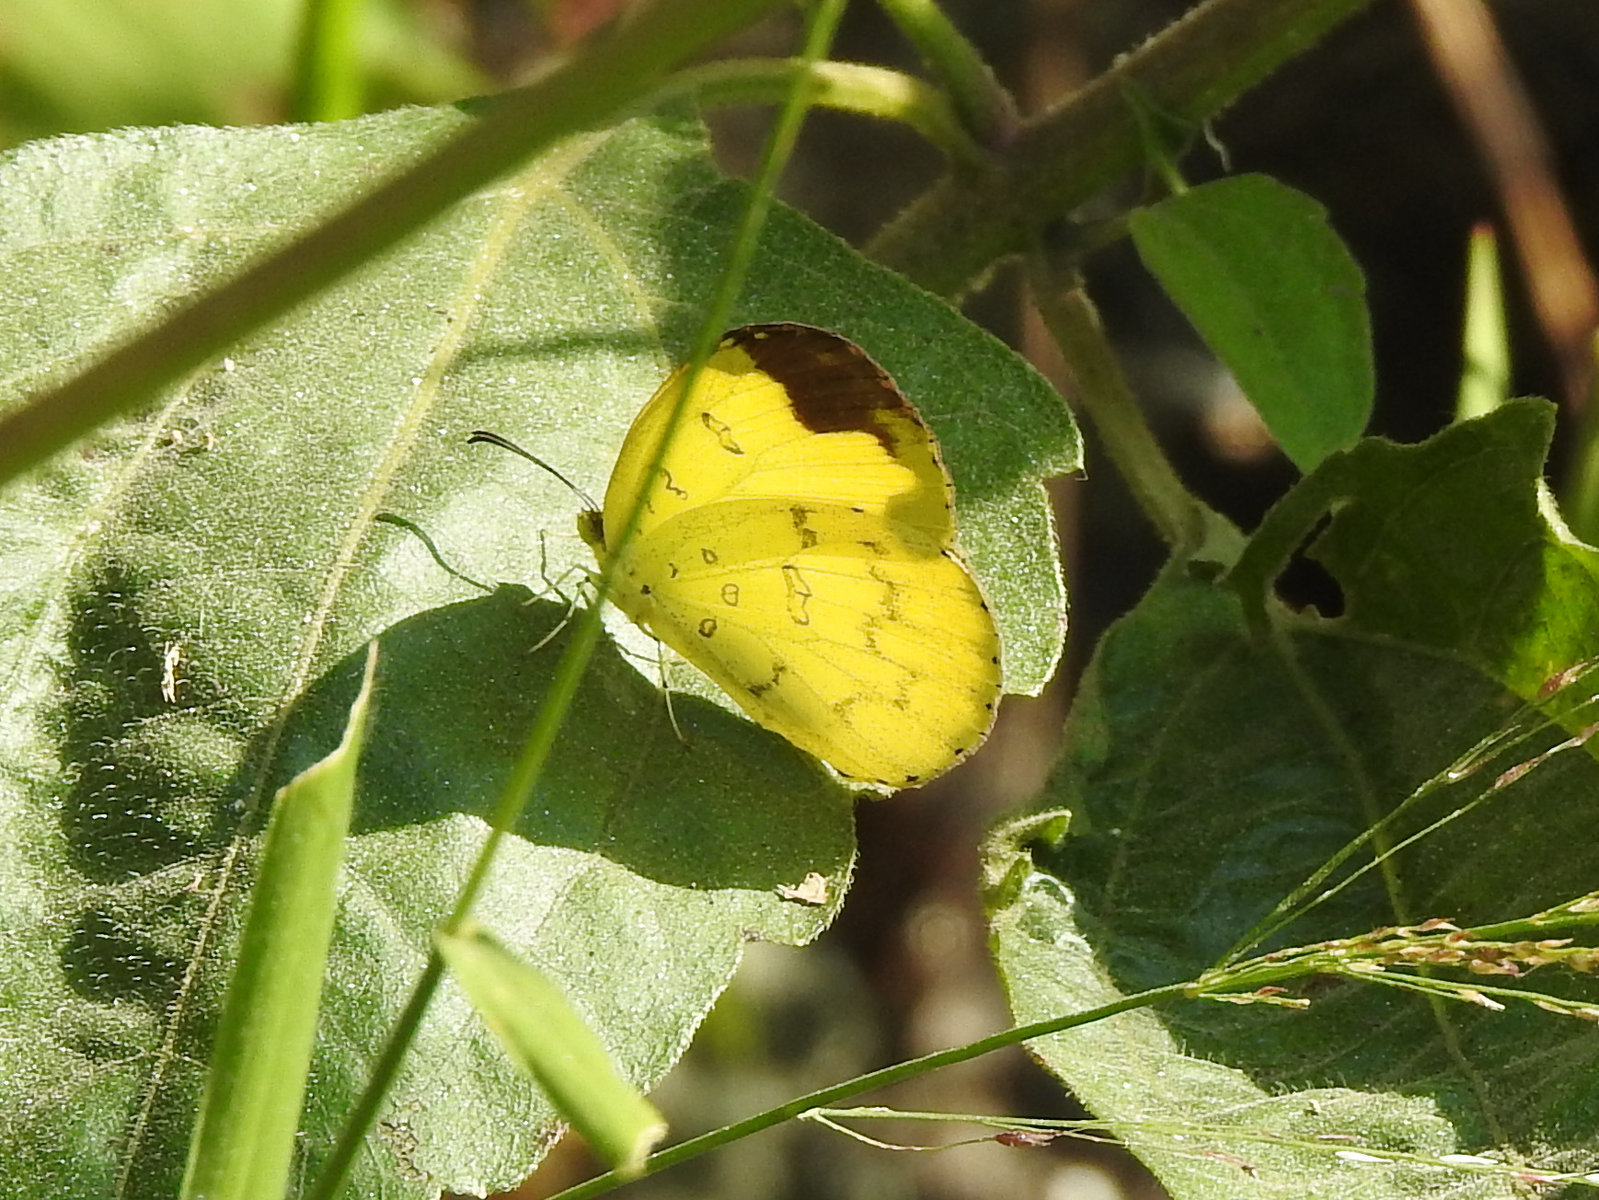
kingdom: Animalia
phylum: Arthropoda
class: Insecta
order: Lepidoptera
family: Pieridae
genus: Eurema
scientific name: Eurema blanda
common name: Three-spot grass yellow
